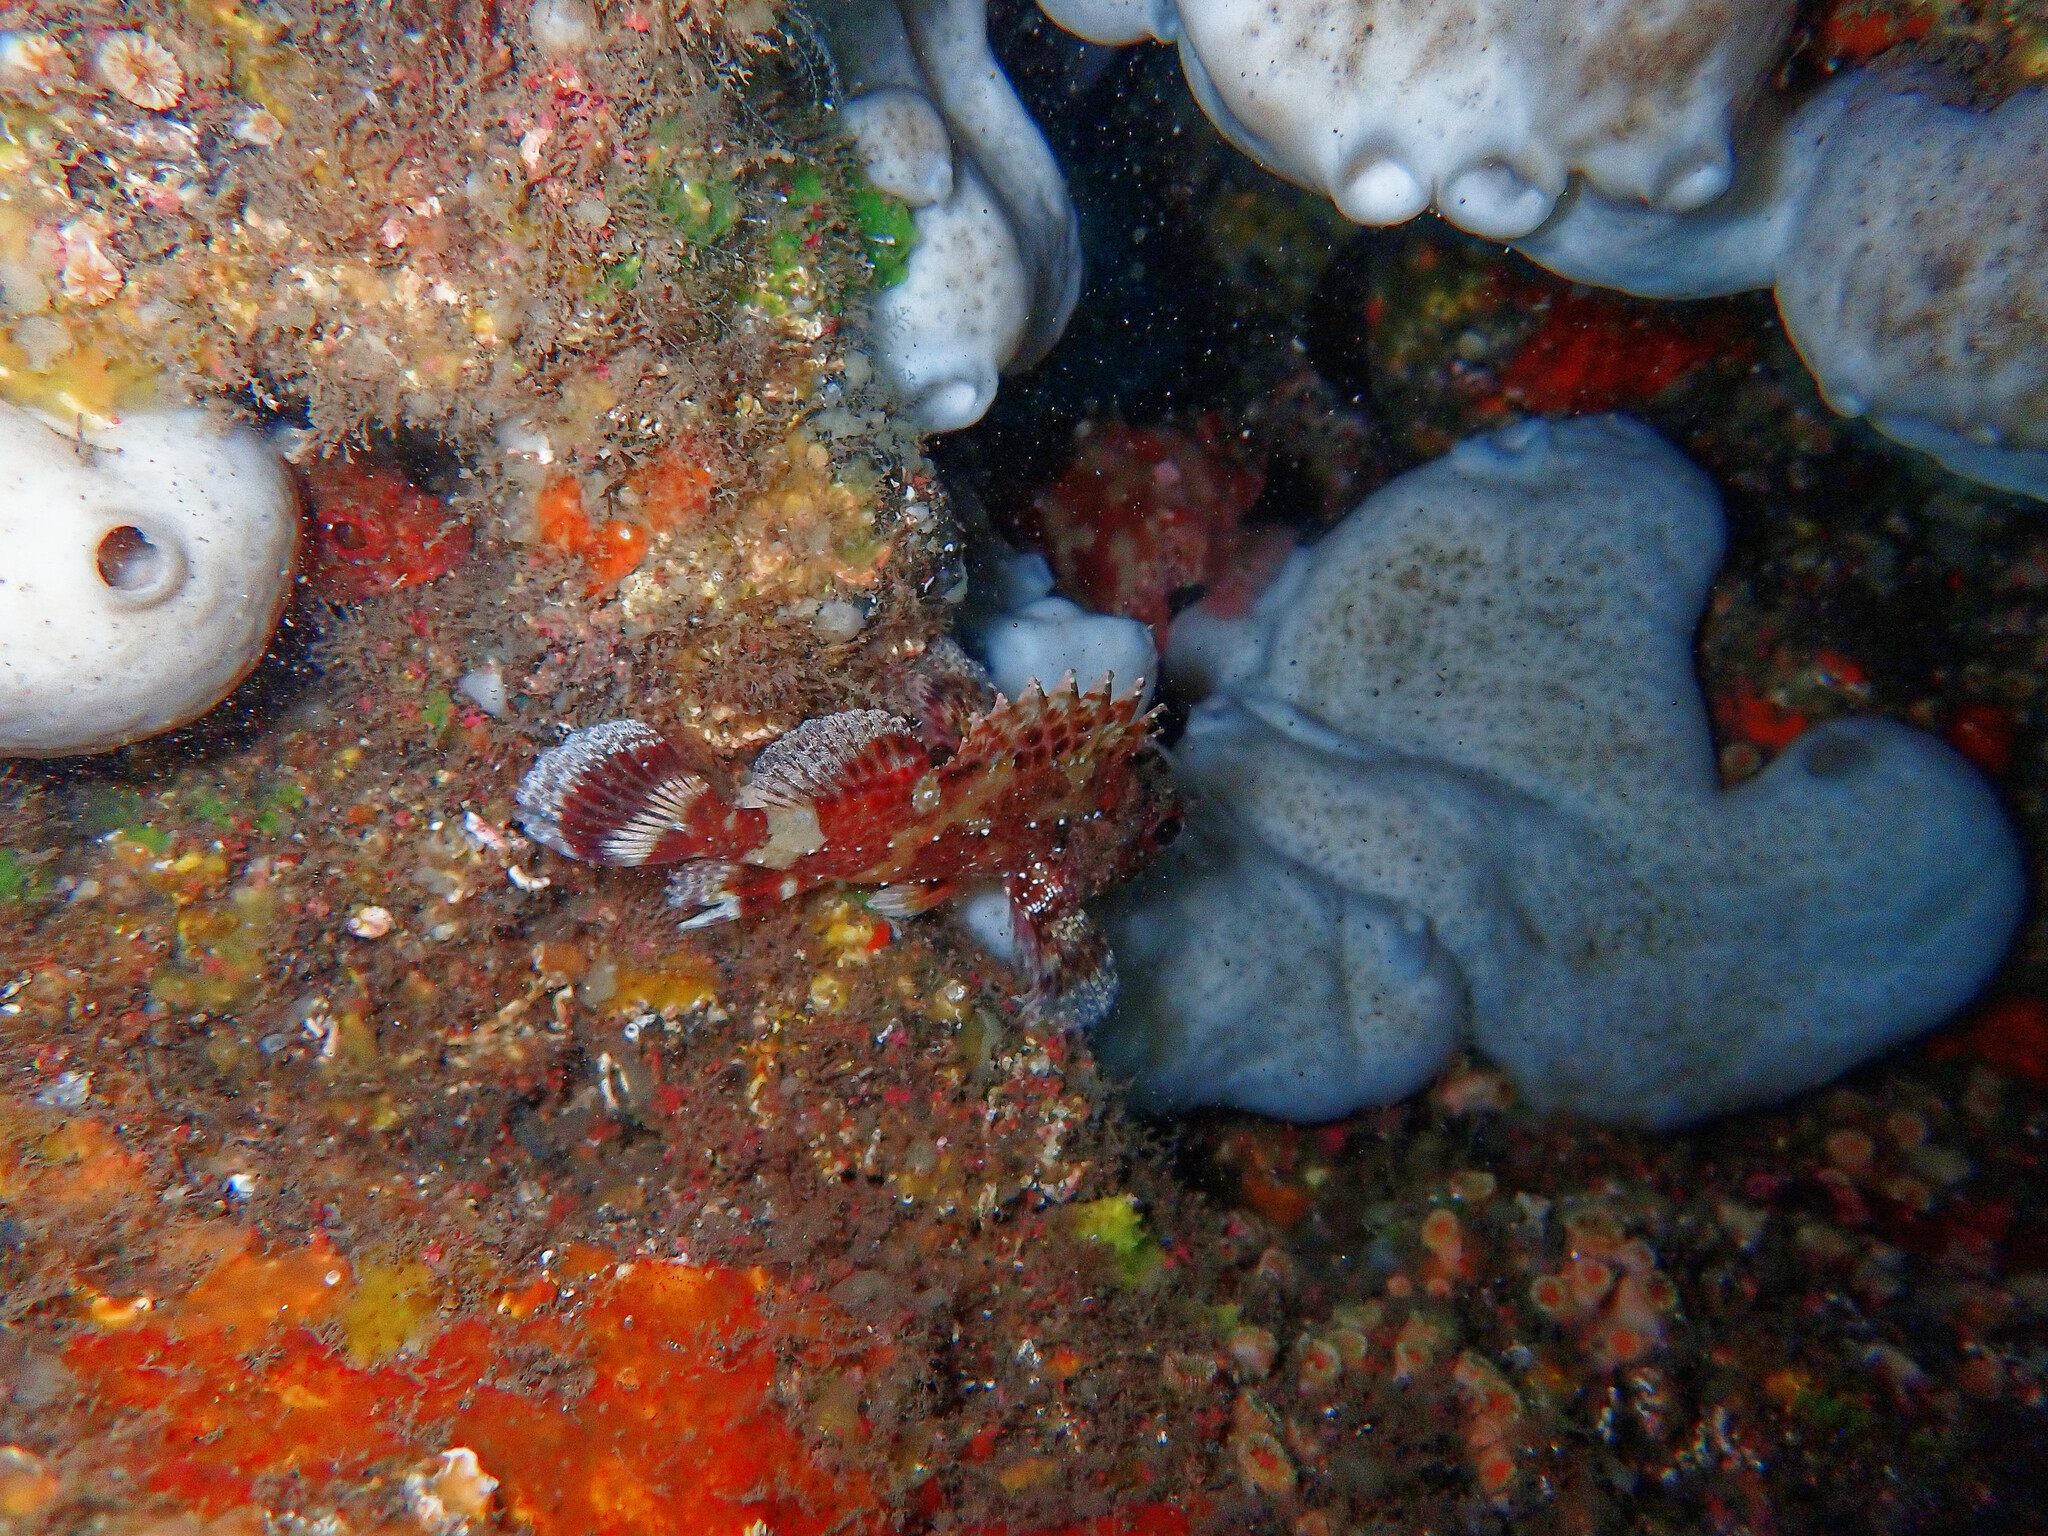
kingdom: Animalia
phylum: Chordata
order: Scorpaeniformes
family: Scorpaenidae
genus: Scorpaena
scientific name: Scorpaena maderensis
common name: Madeira rockfish
